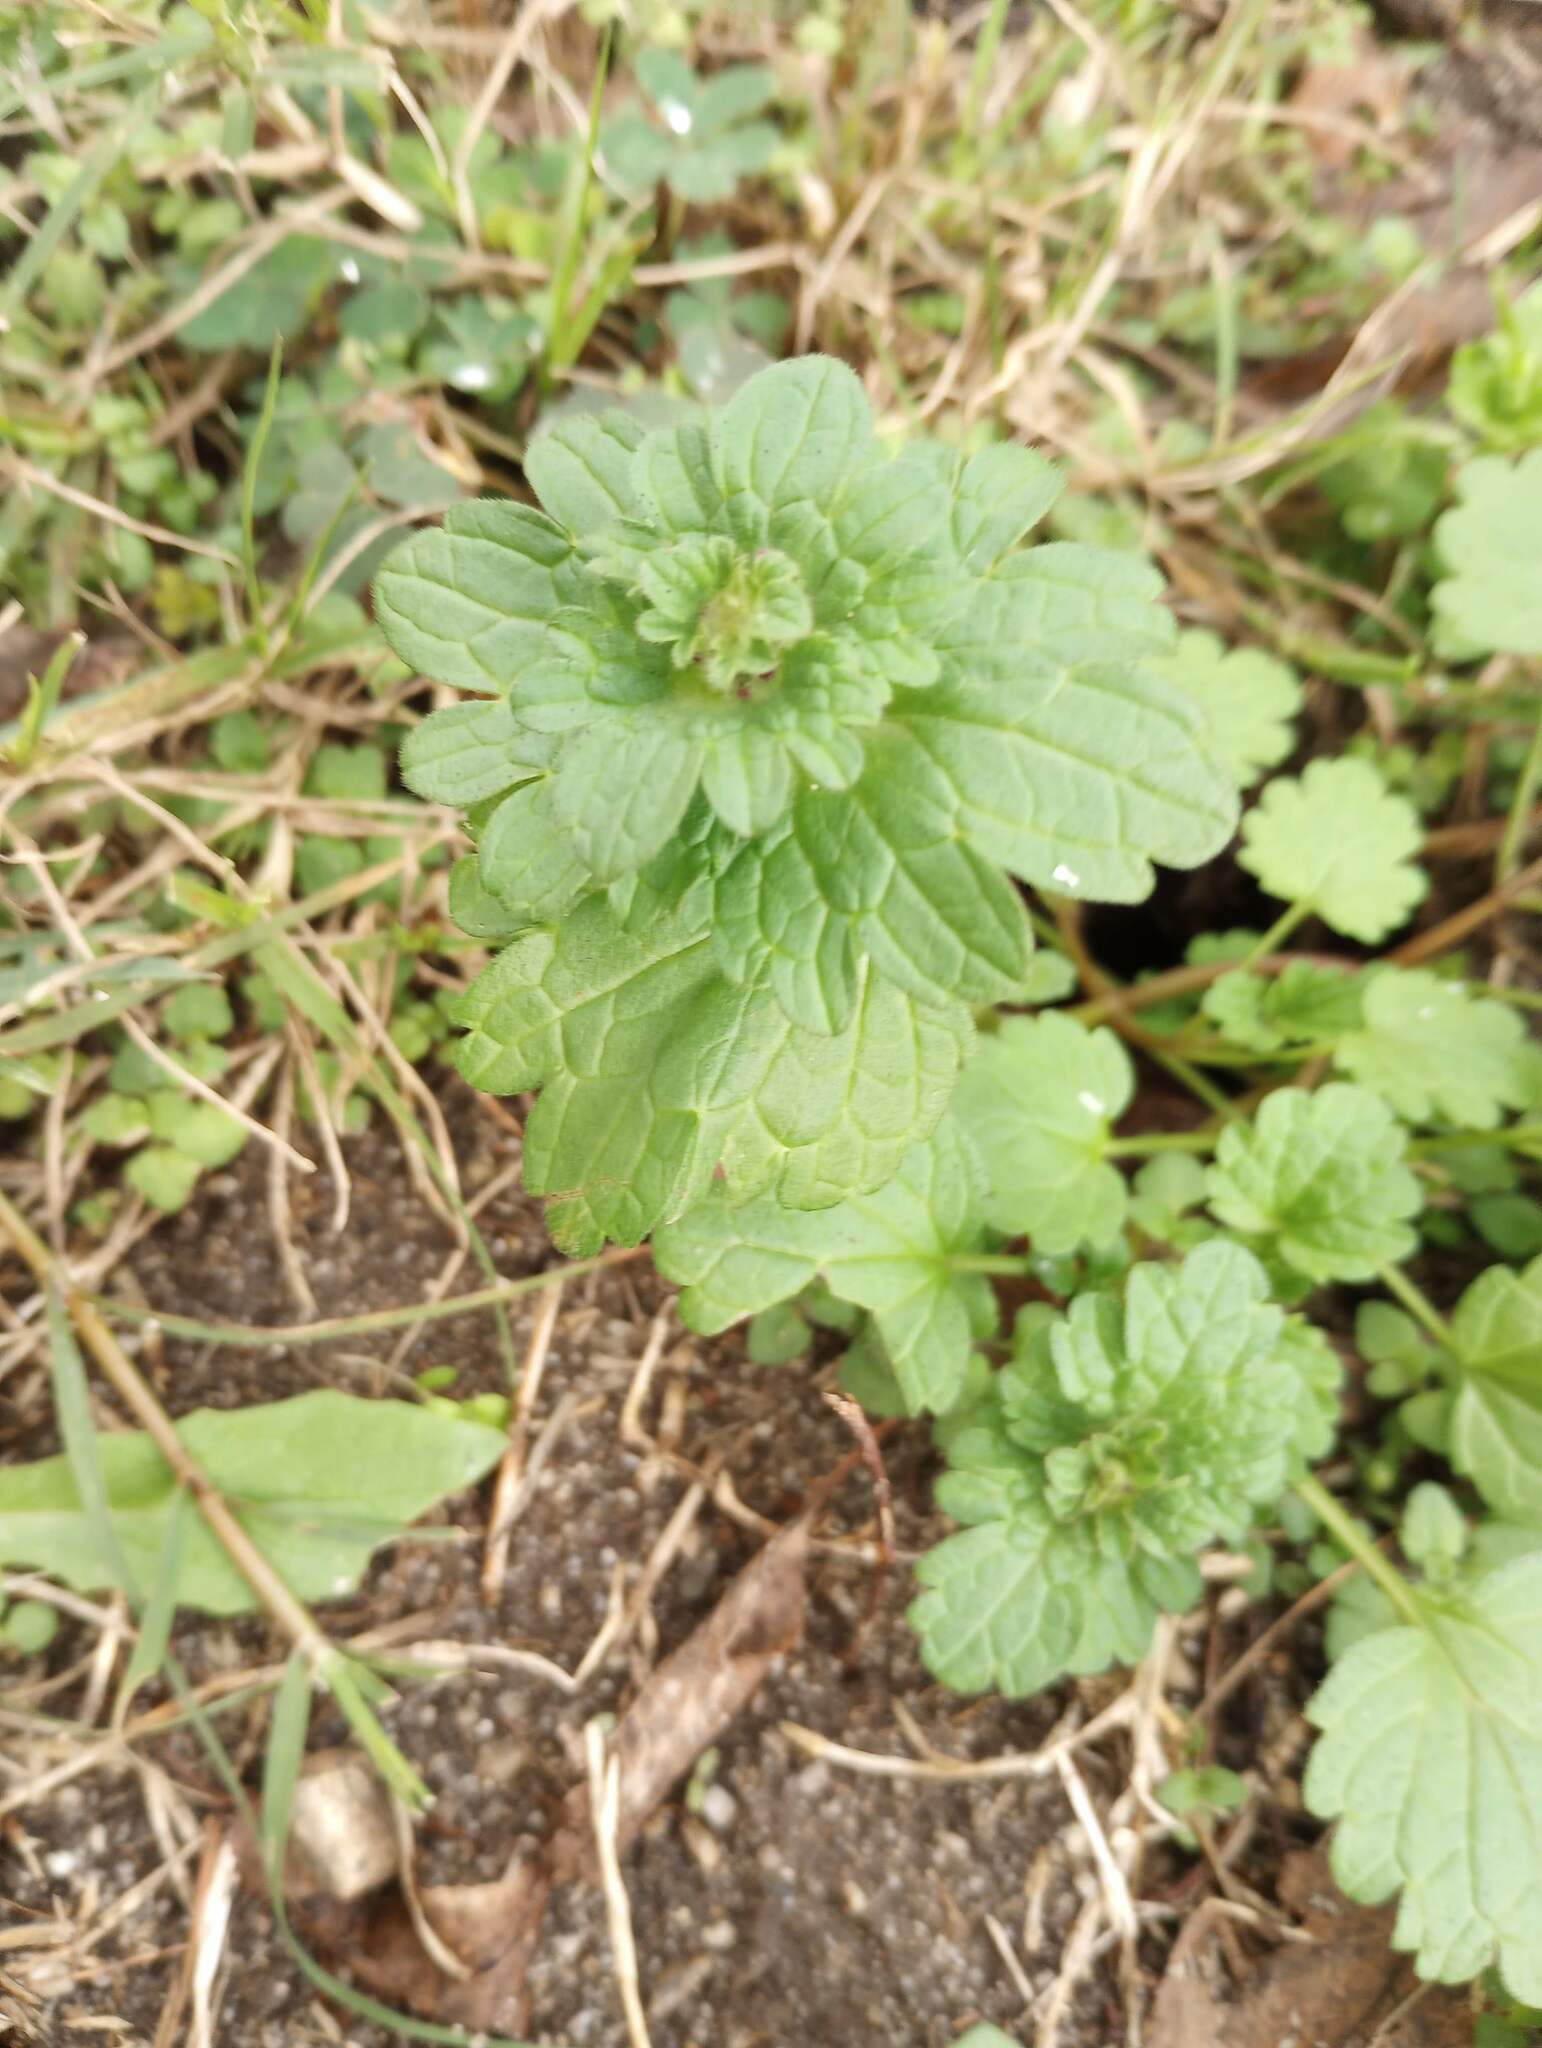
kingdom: Plantae
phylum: Tracheophyta
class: Magnoliopsida
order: Lamiales
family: Lamiaceae
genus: Lamium
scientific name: Lamium amplexicaule
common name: Henbit dead-nettle
